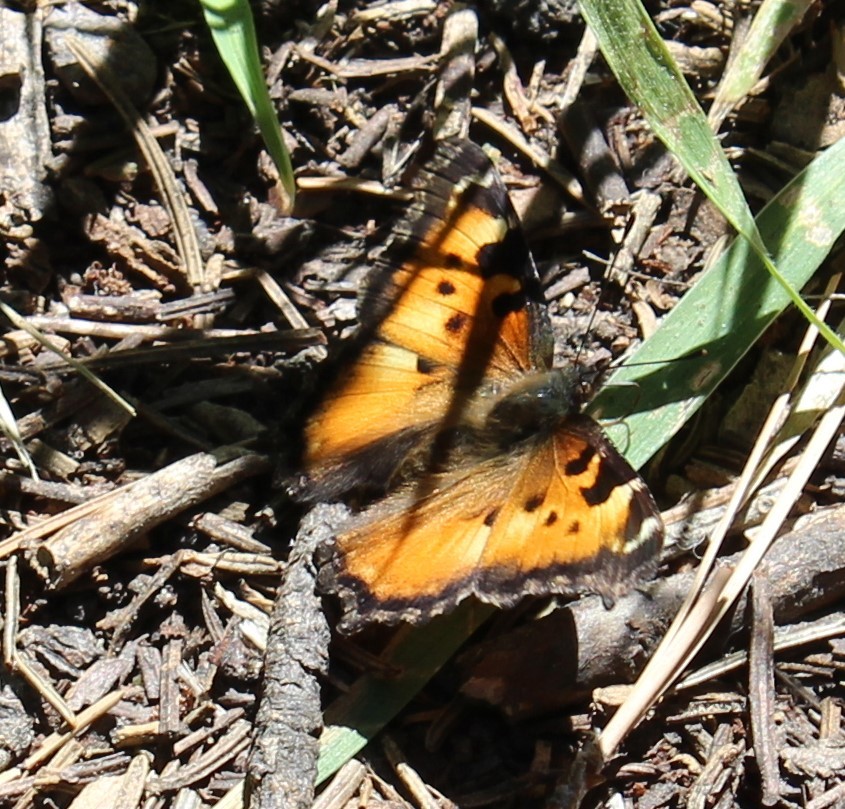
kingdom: Animalia
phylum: Arthropoda
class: Insecta
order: Lepidoptera
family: Nymphalidae
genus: Nymphalis
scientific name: Nymphalis californica
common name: California tortoiseshell
